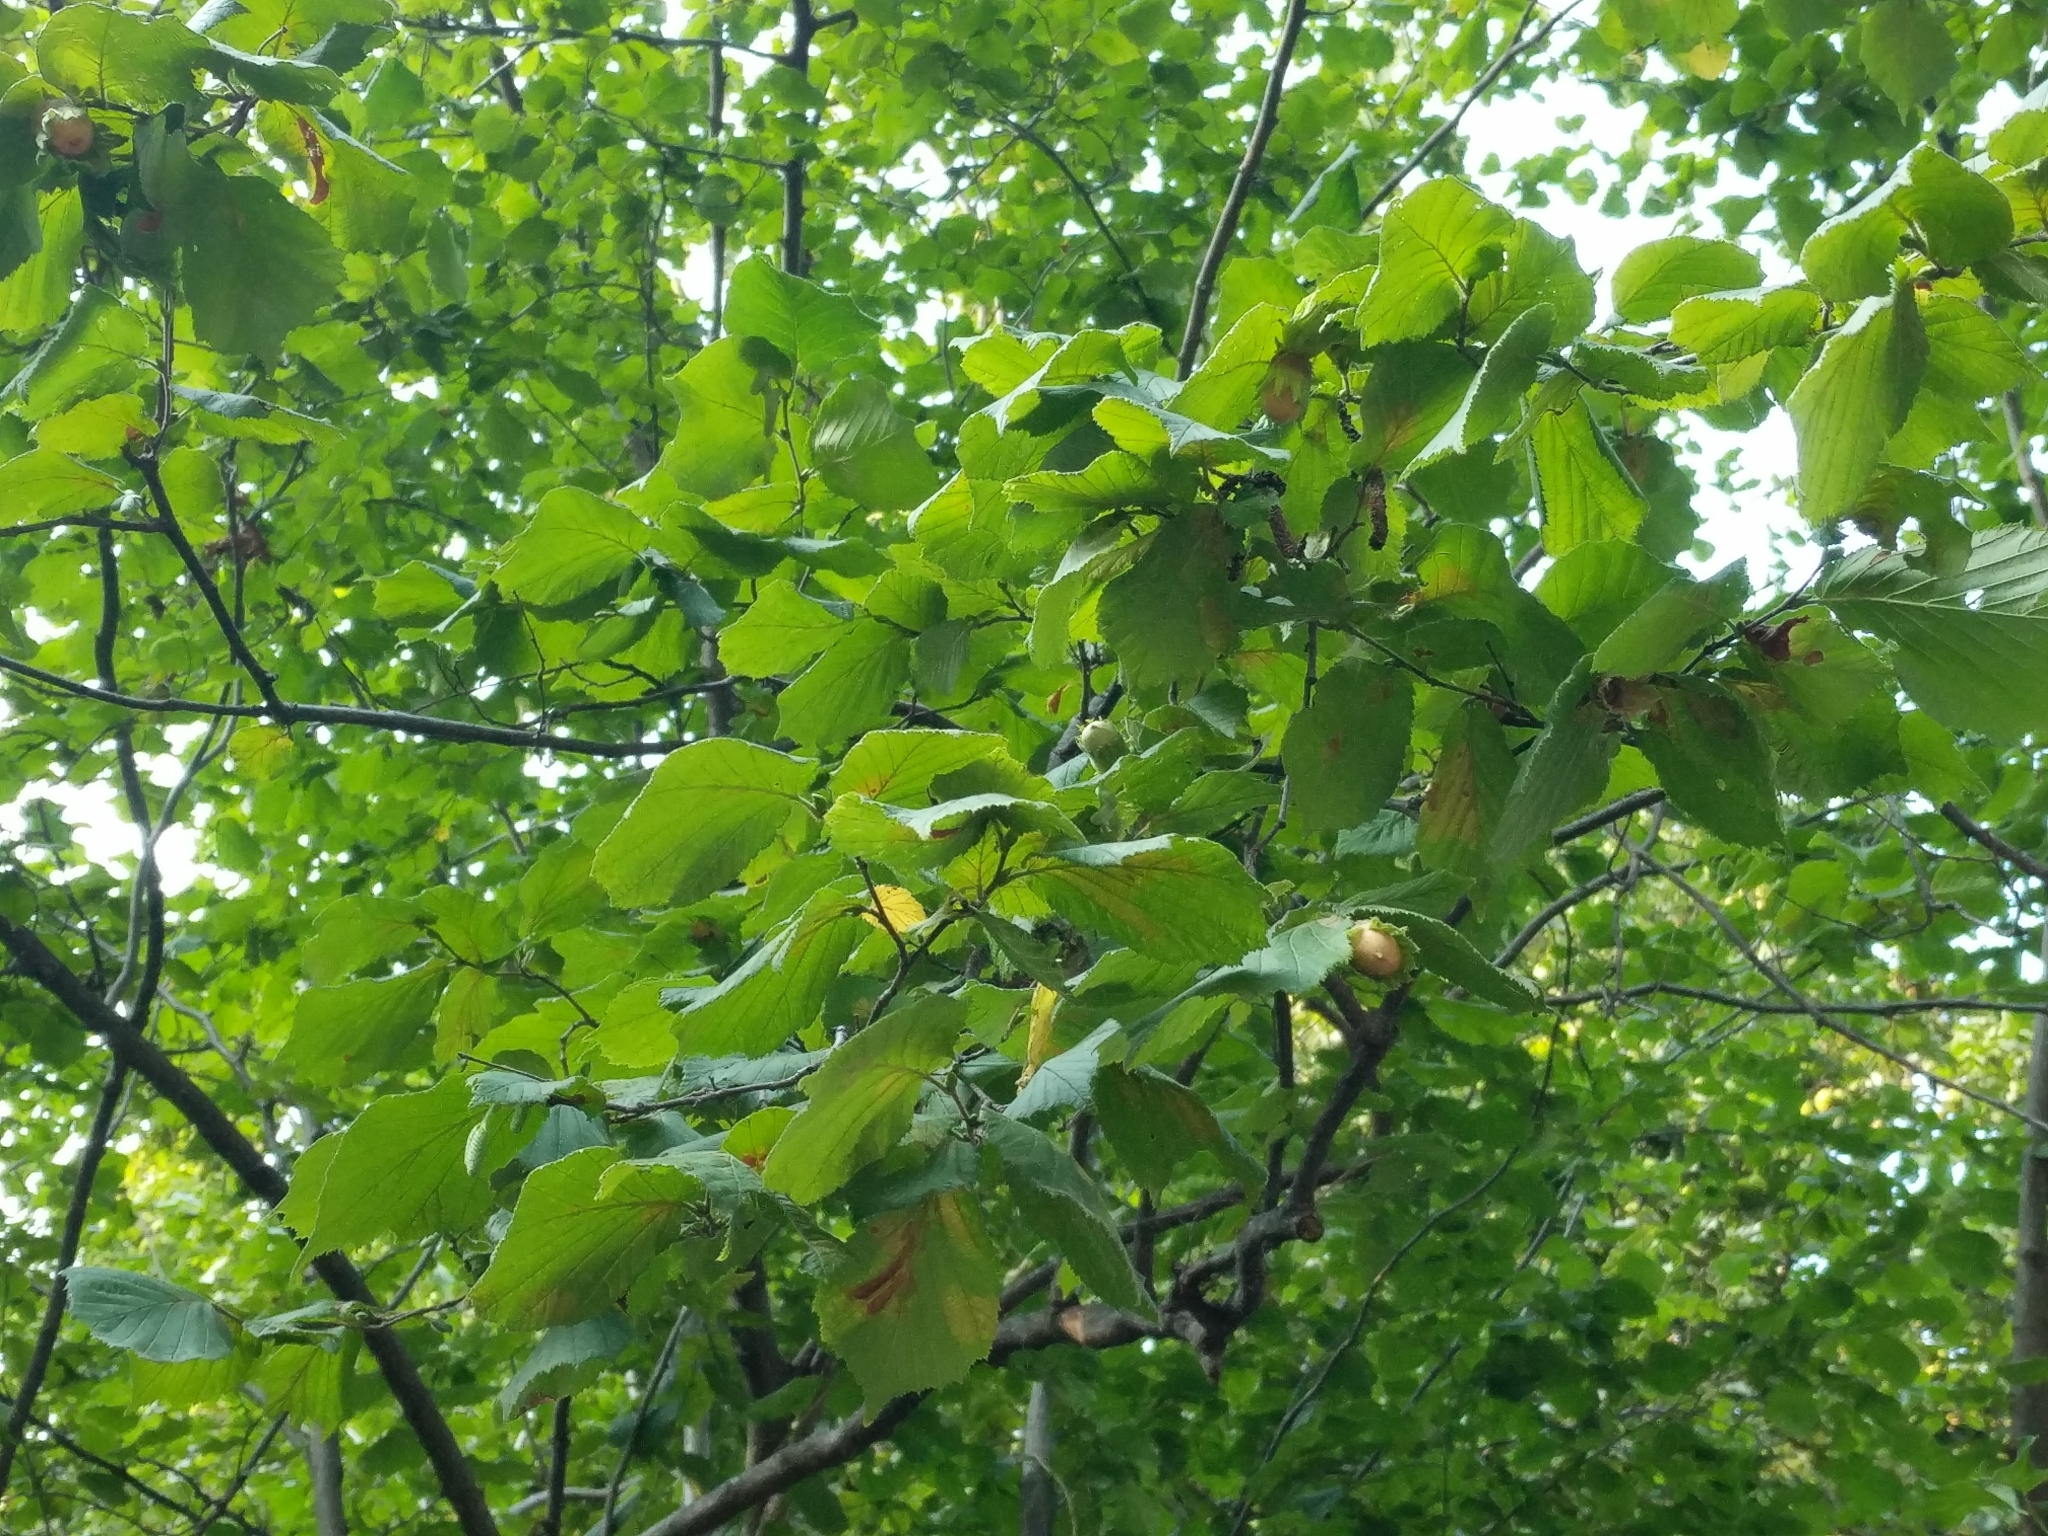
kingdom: Plantae
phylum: Tracheophyta
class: Magnoliopsida
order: Fagales
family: Betulaceae
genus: Corylus
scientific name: Corylus avellana
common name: European hazel
